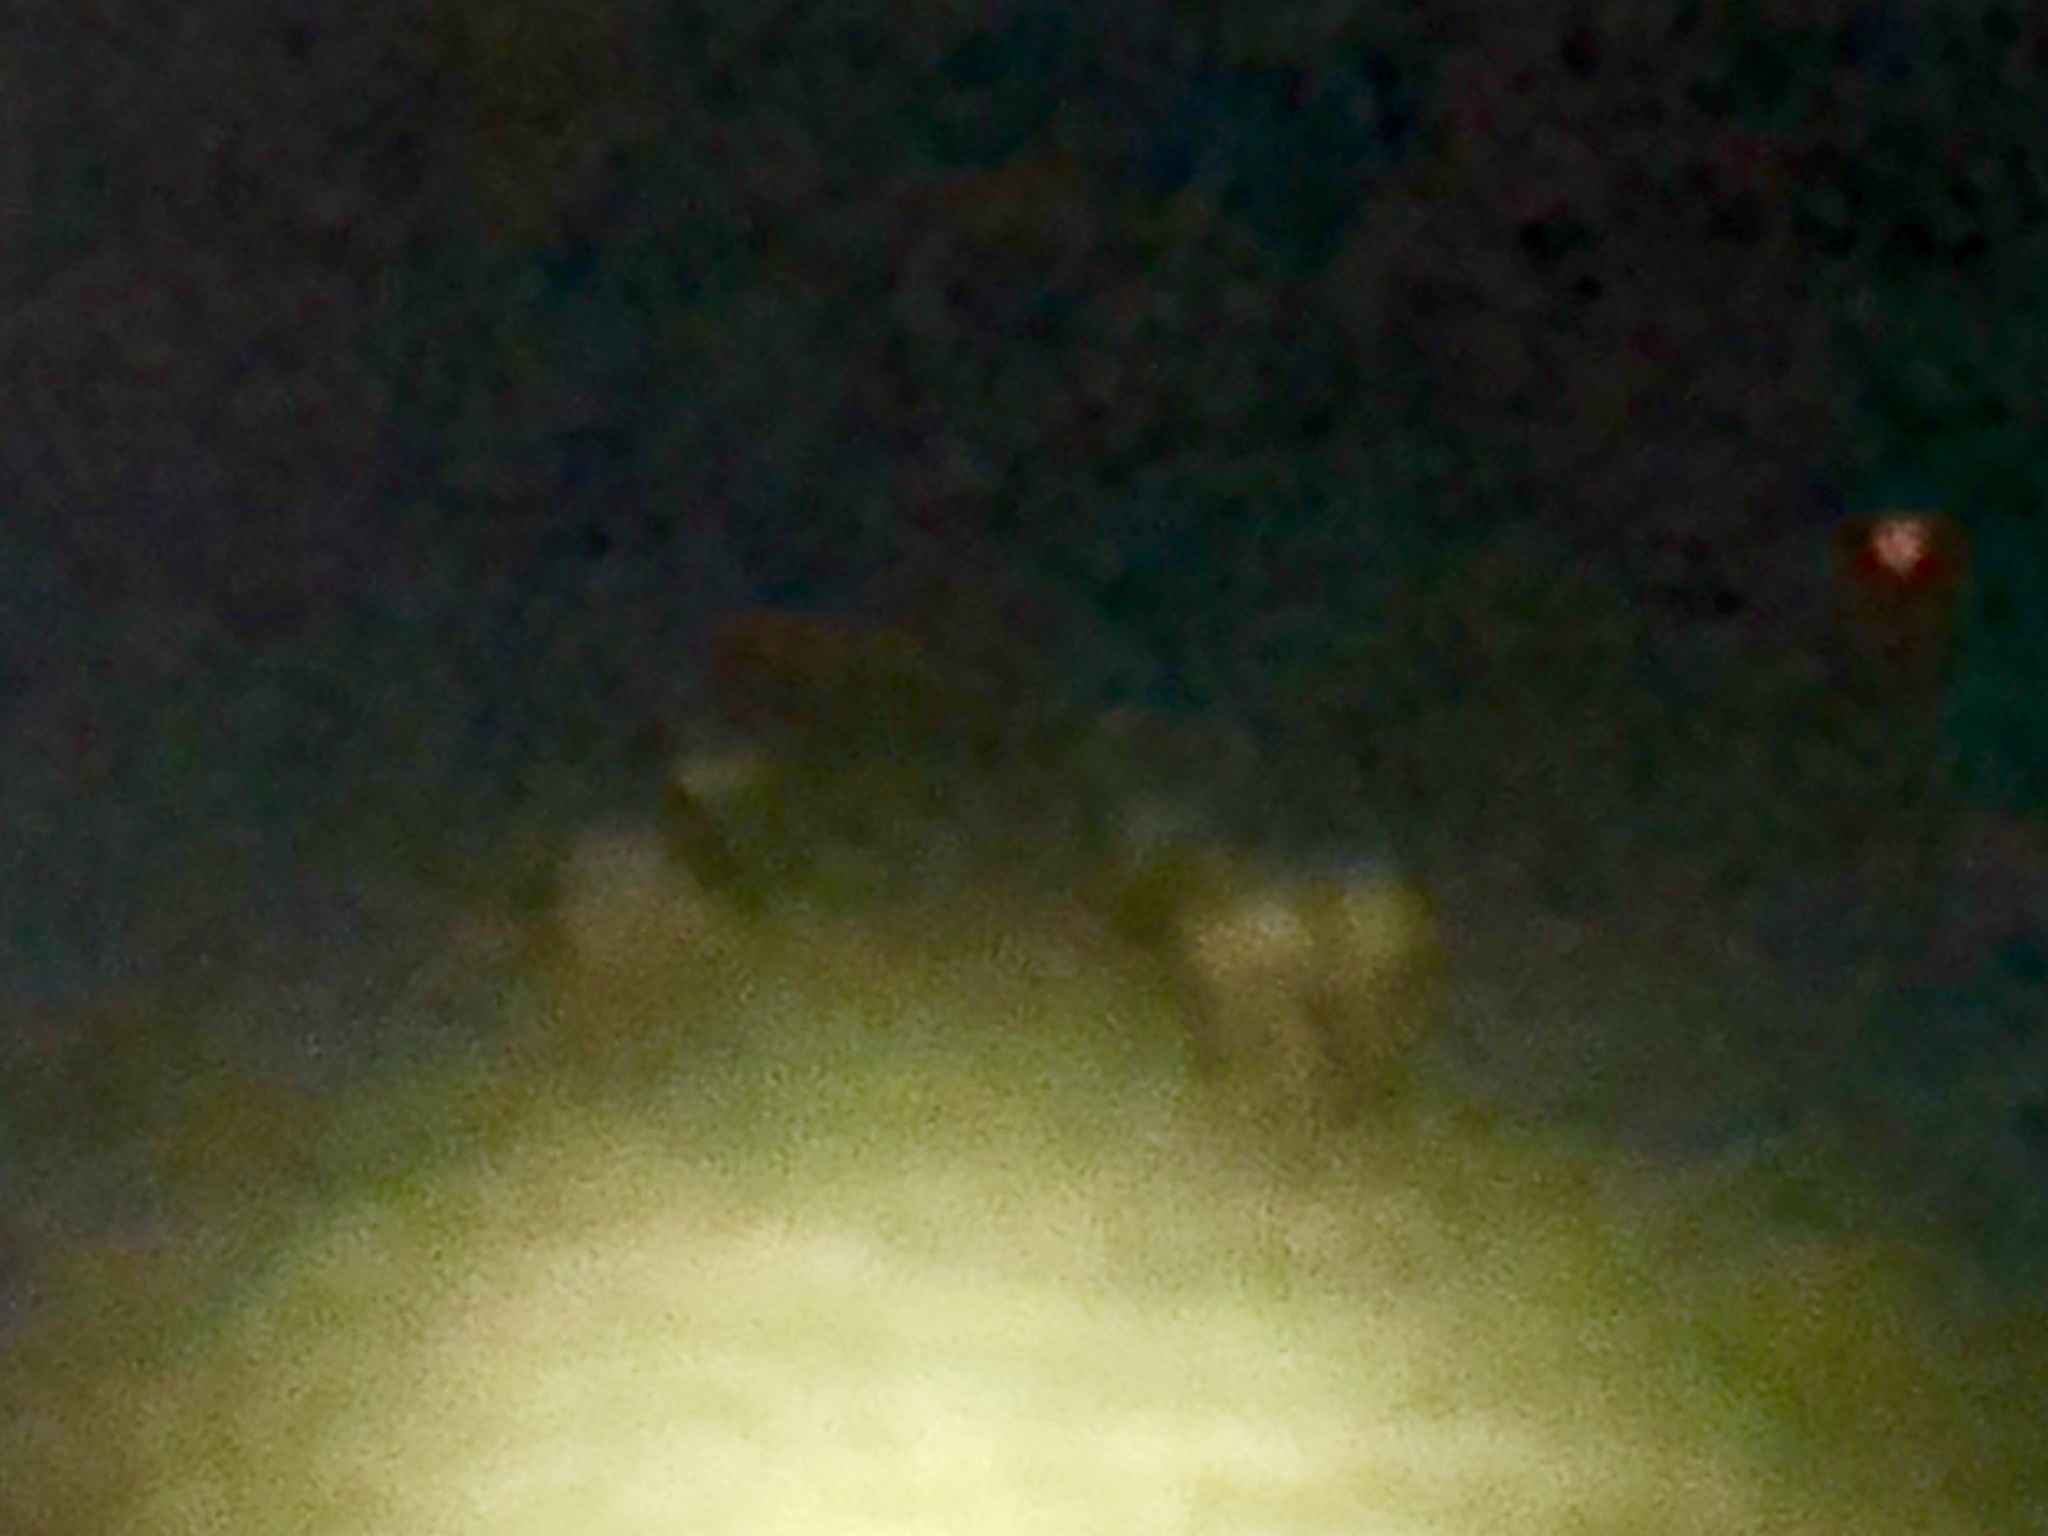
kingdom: Animalia
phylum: Chordata
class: Mammalia
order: Artiodactyla
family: Cervidae
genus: Cervus
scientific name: Cervus elaphus
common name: Red deer
